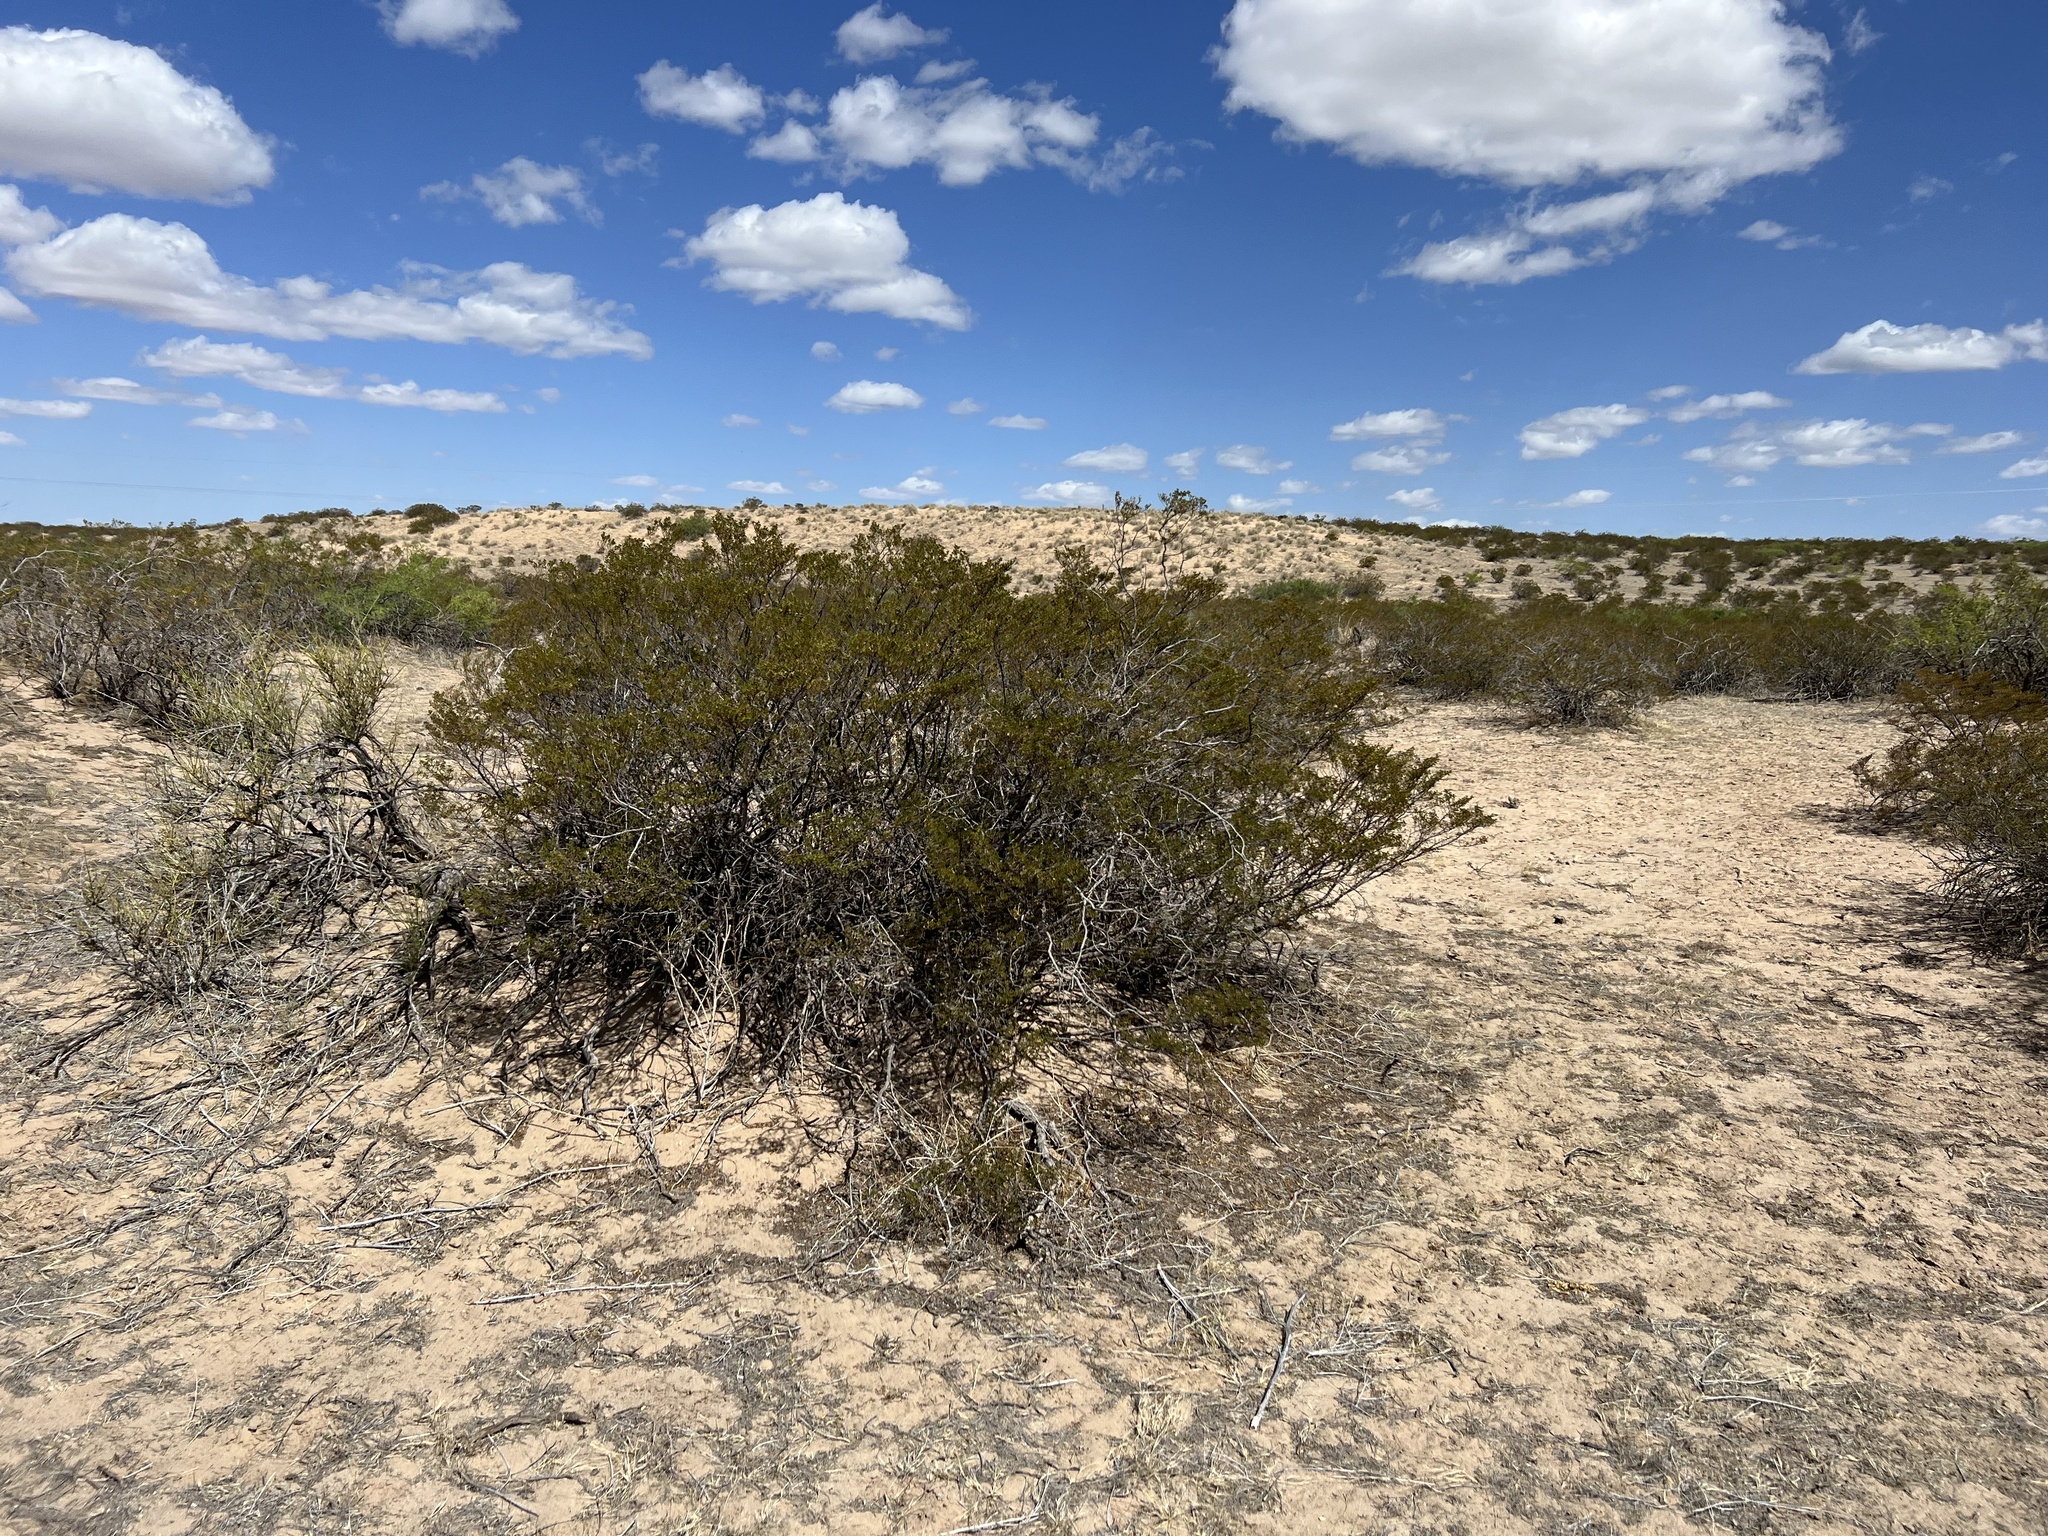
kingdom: Plantae
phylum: Tracheophyta
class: Magnoliopsida
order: Zygophyllales
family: Zygophyllaceae
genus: Larrea
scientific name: Larrea tridentata
